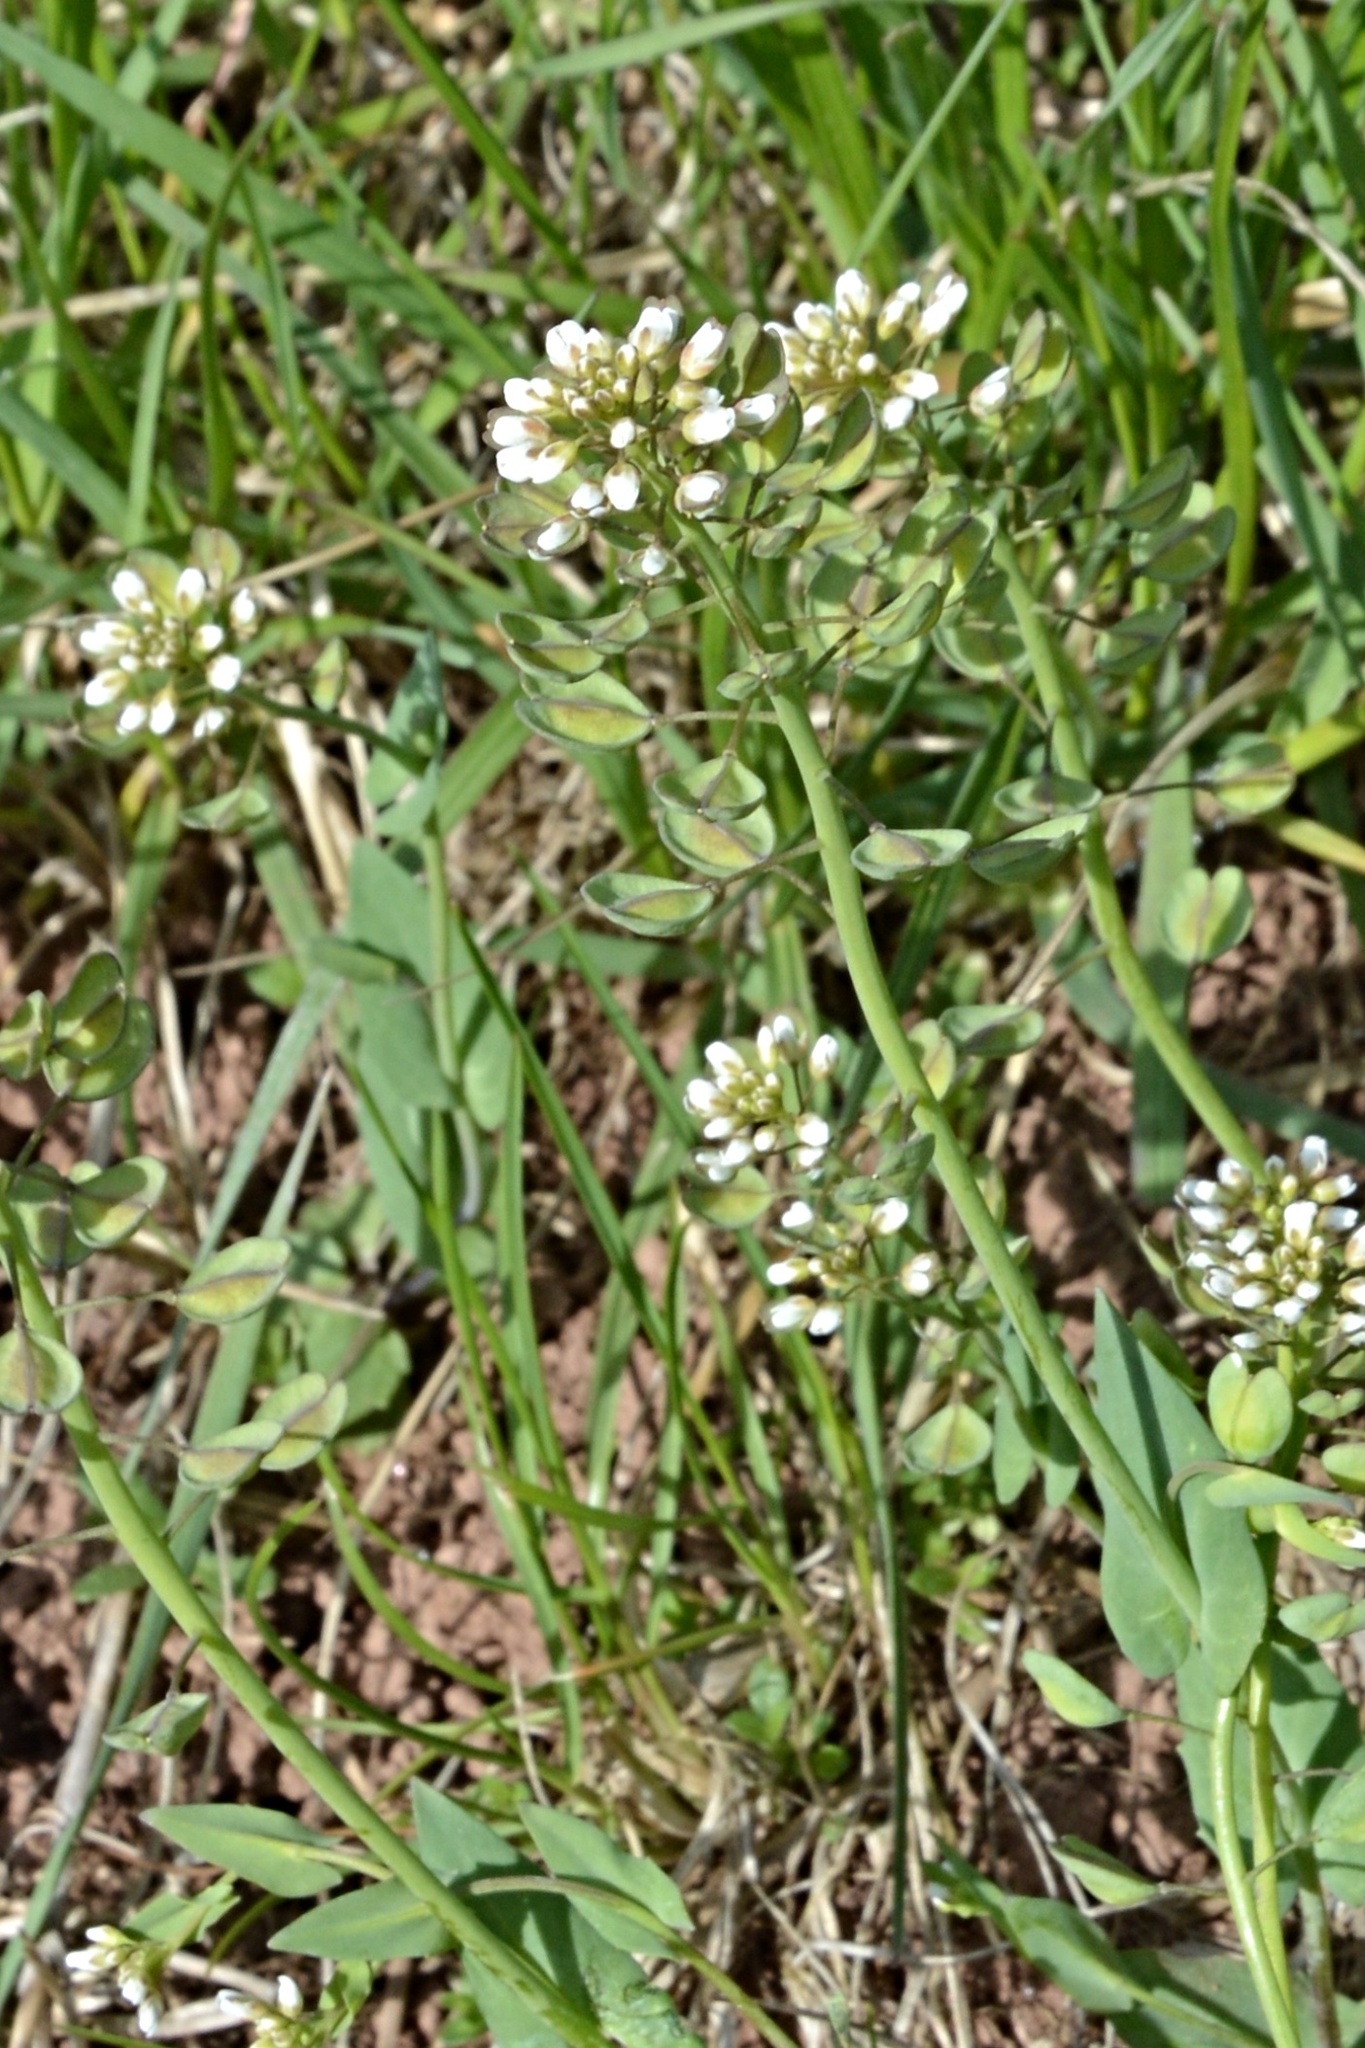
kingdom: Plantae
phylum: Tracheophyta
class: Magnoliopsida
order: Brassicales
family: Brassicaceae
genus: Noccaea
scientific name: Noccaea perfoliata
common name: Perfoliate pennycress
